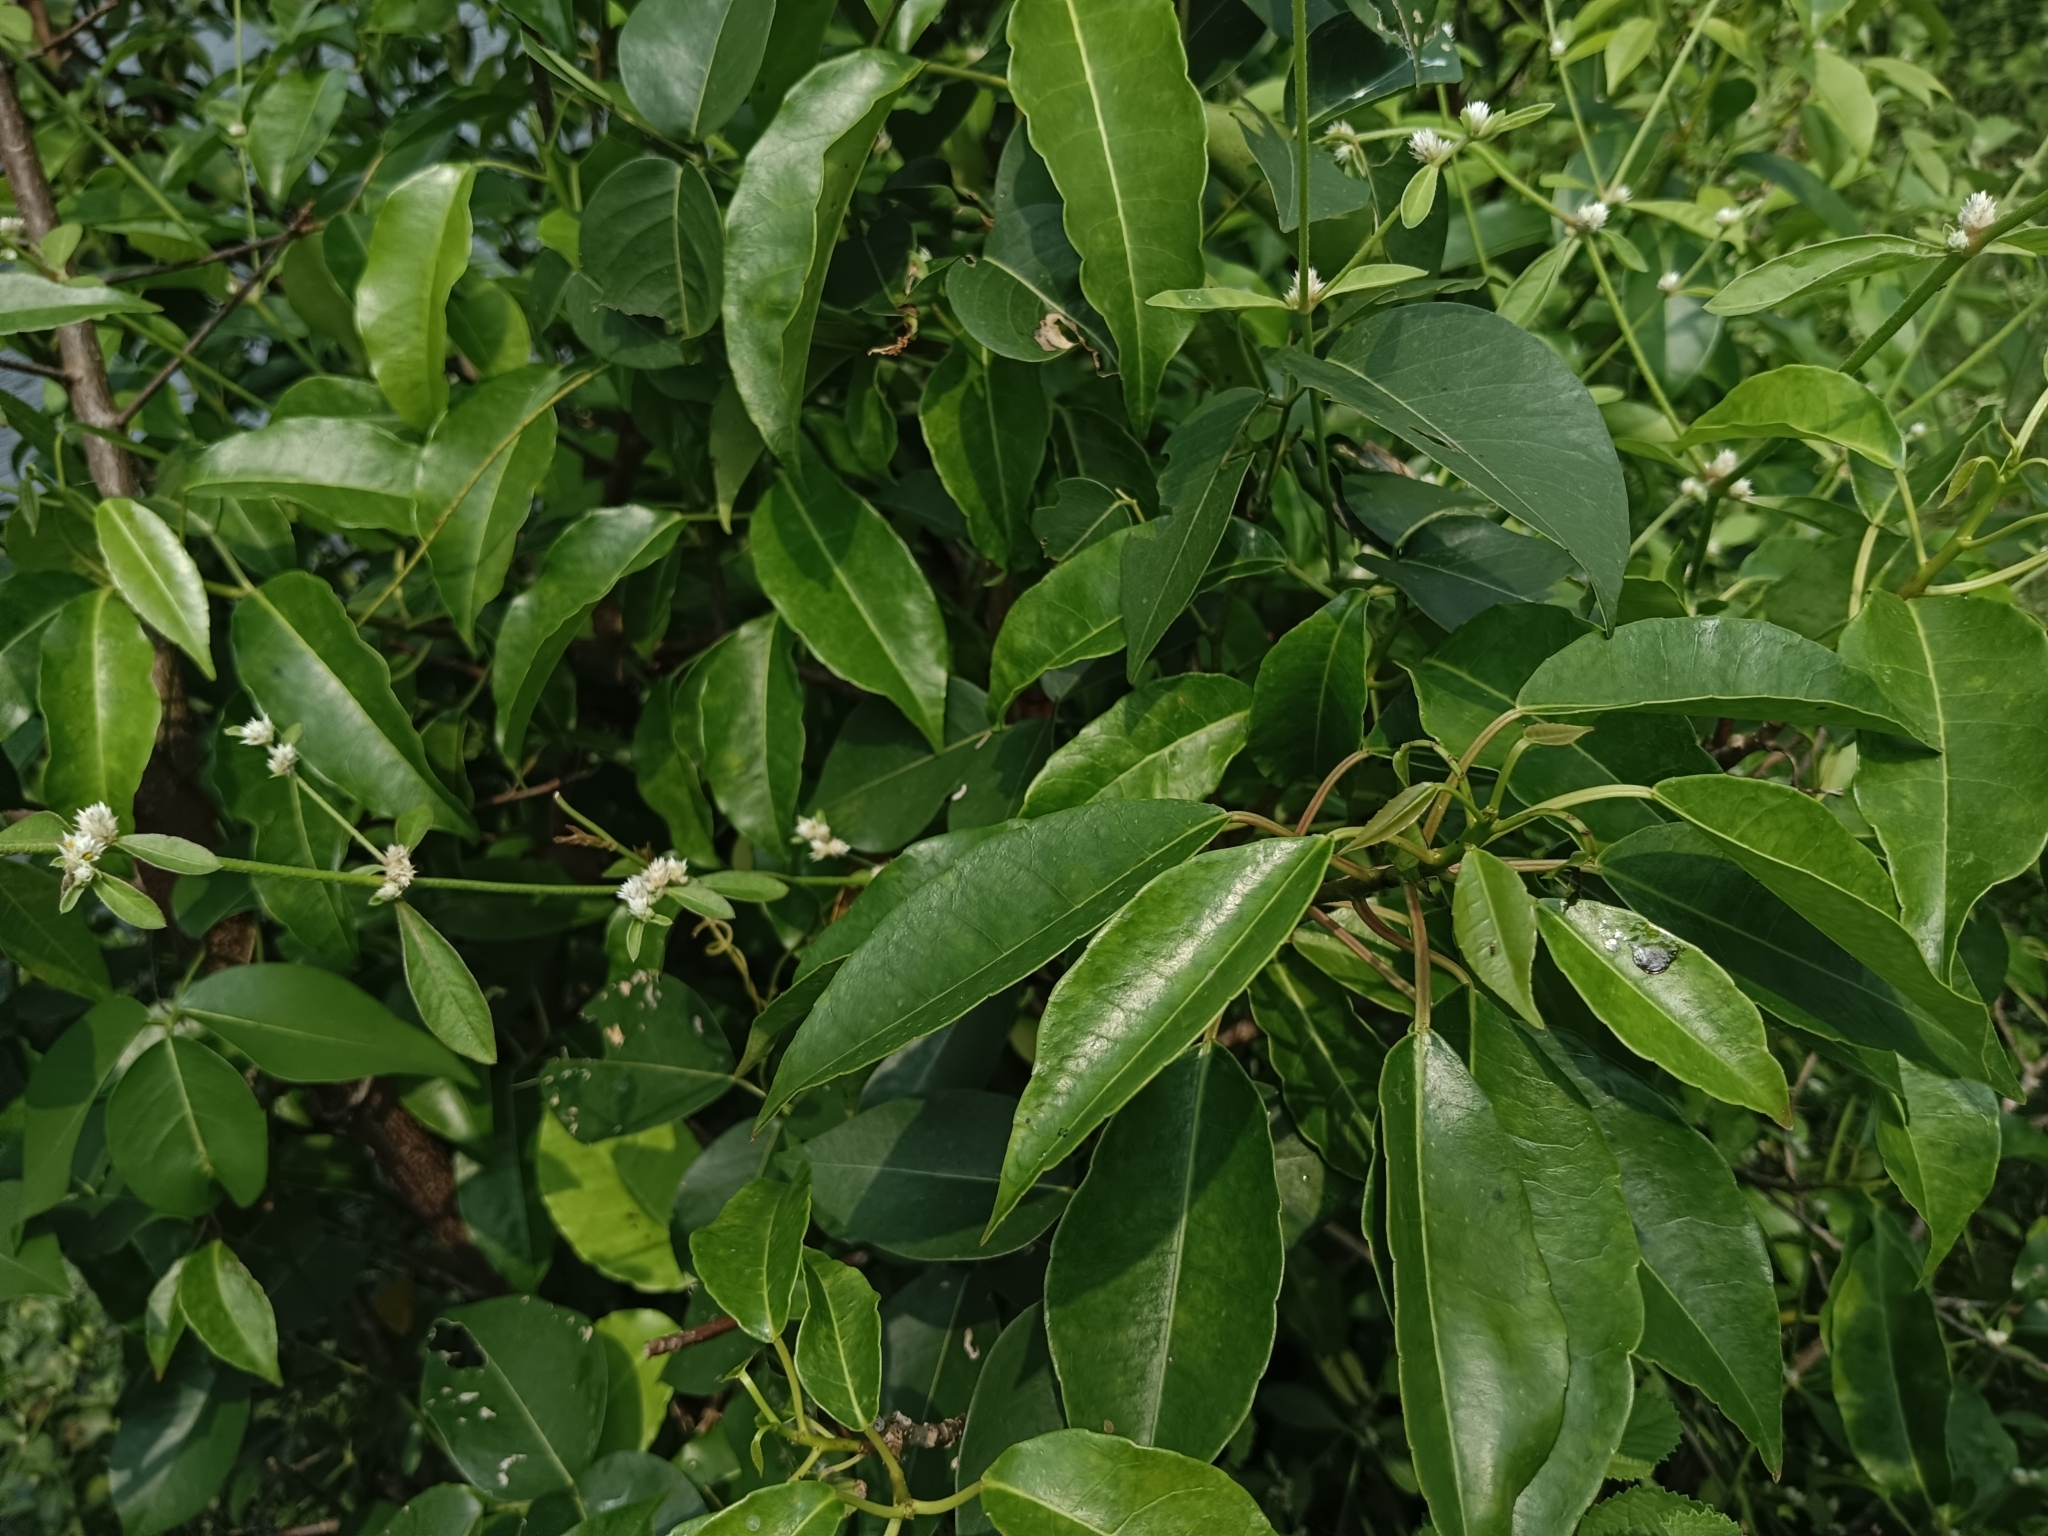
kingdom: Plantae
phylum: Tracheophyta
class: Magnoliopsida
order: Malpighiales
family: Euphorbiaceae
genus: Excoecaria
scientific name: Excoecaria agallocha
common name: River poisontree
